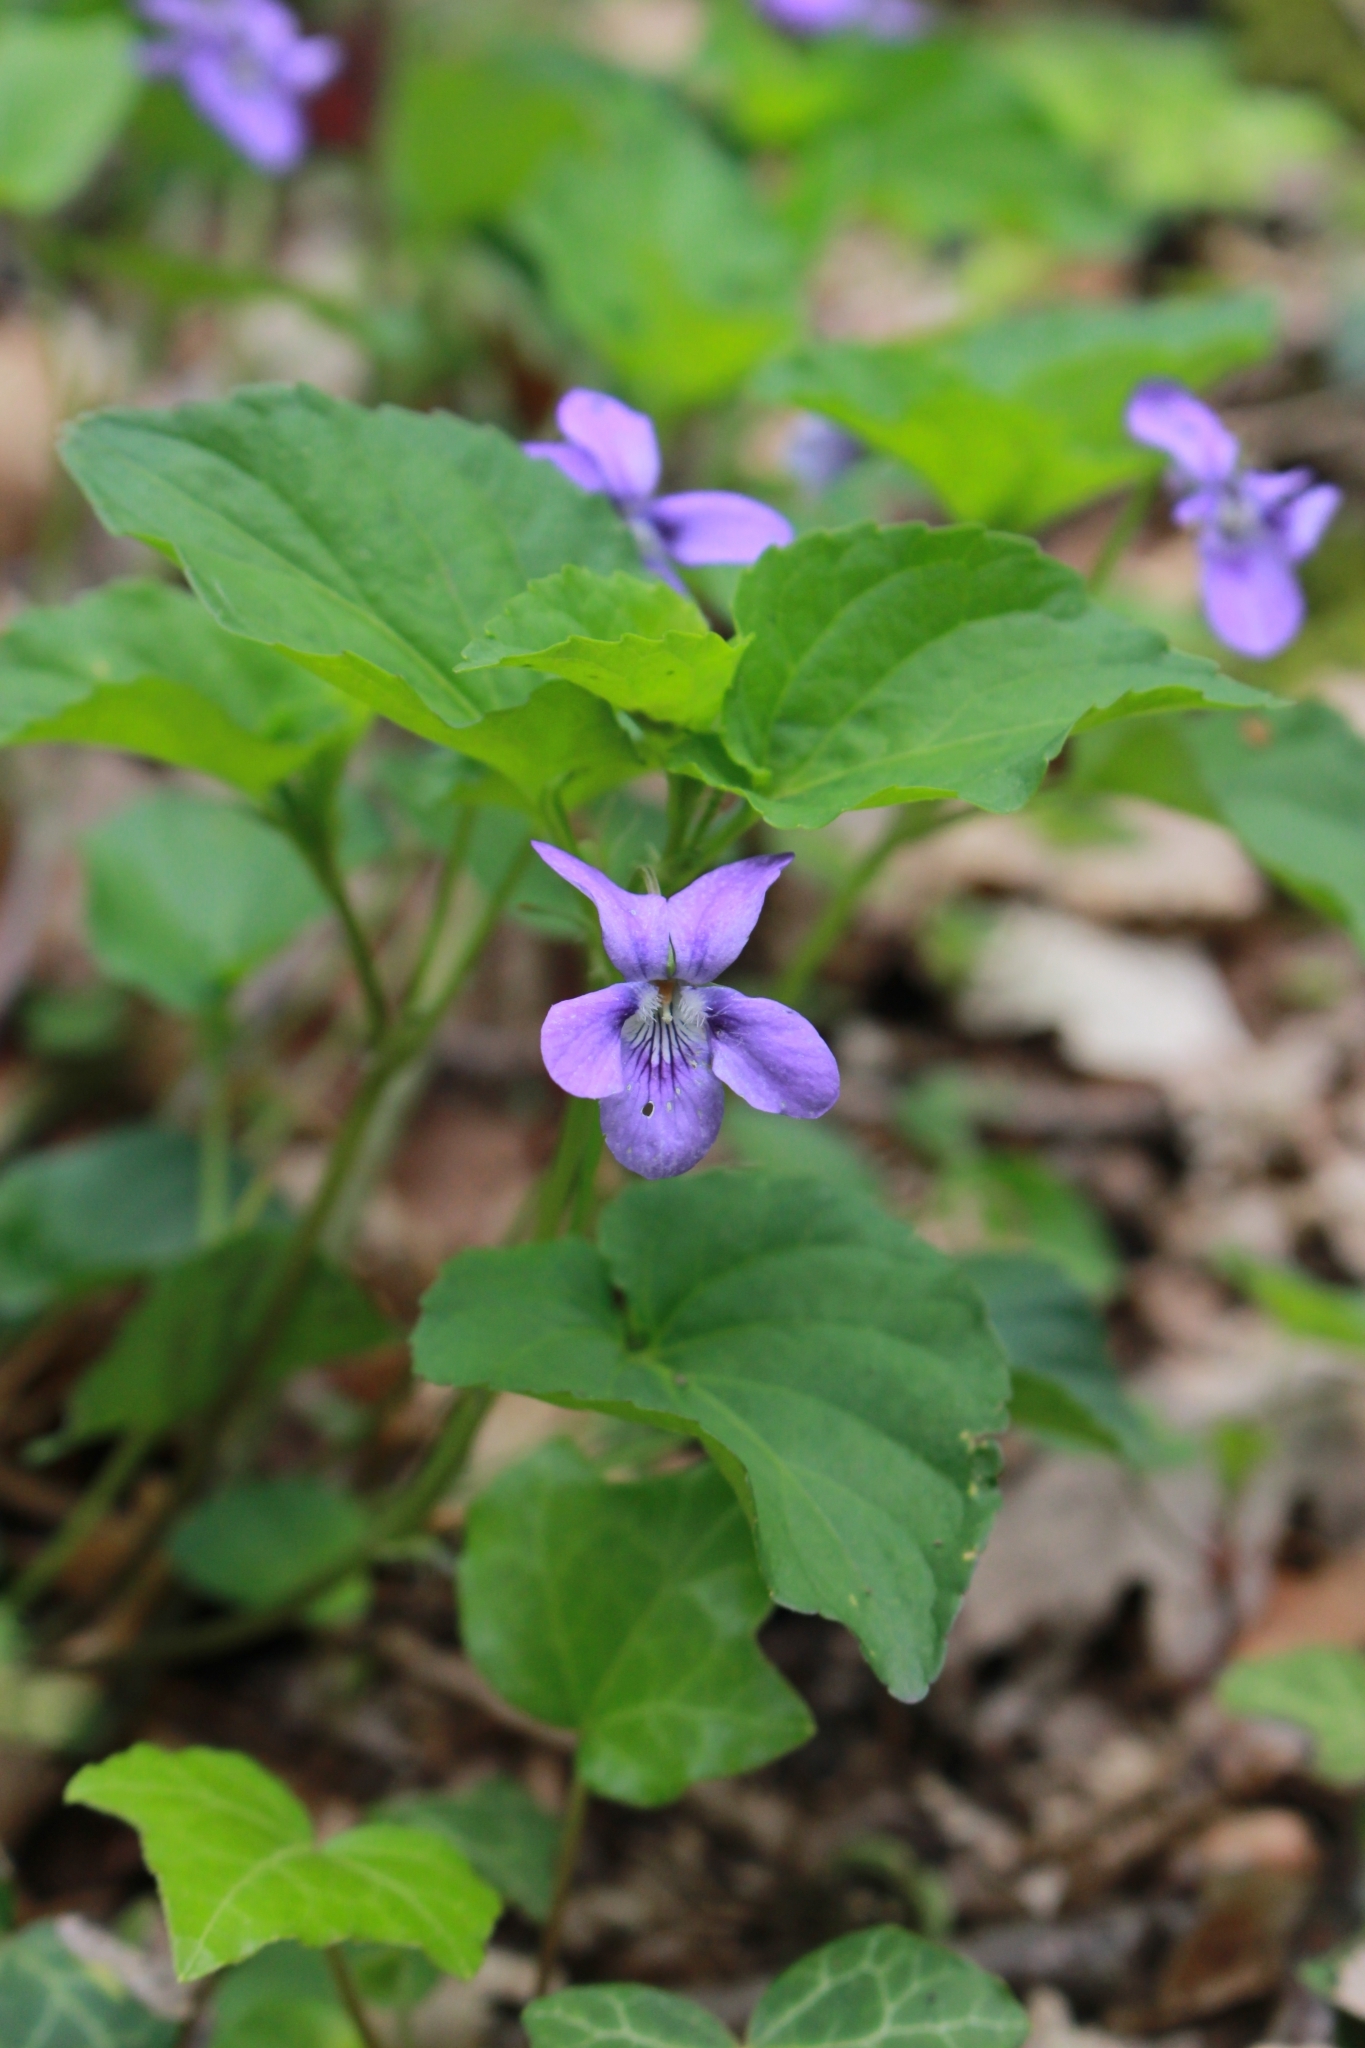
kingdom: Plantae
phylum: Tracheophyta
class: Magnoliopsida
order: Malpighiales
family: Violaceae
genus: Viola
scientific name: Viola reichenbachiana
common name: Early dog-violet
